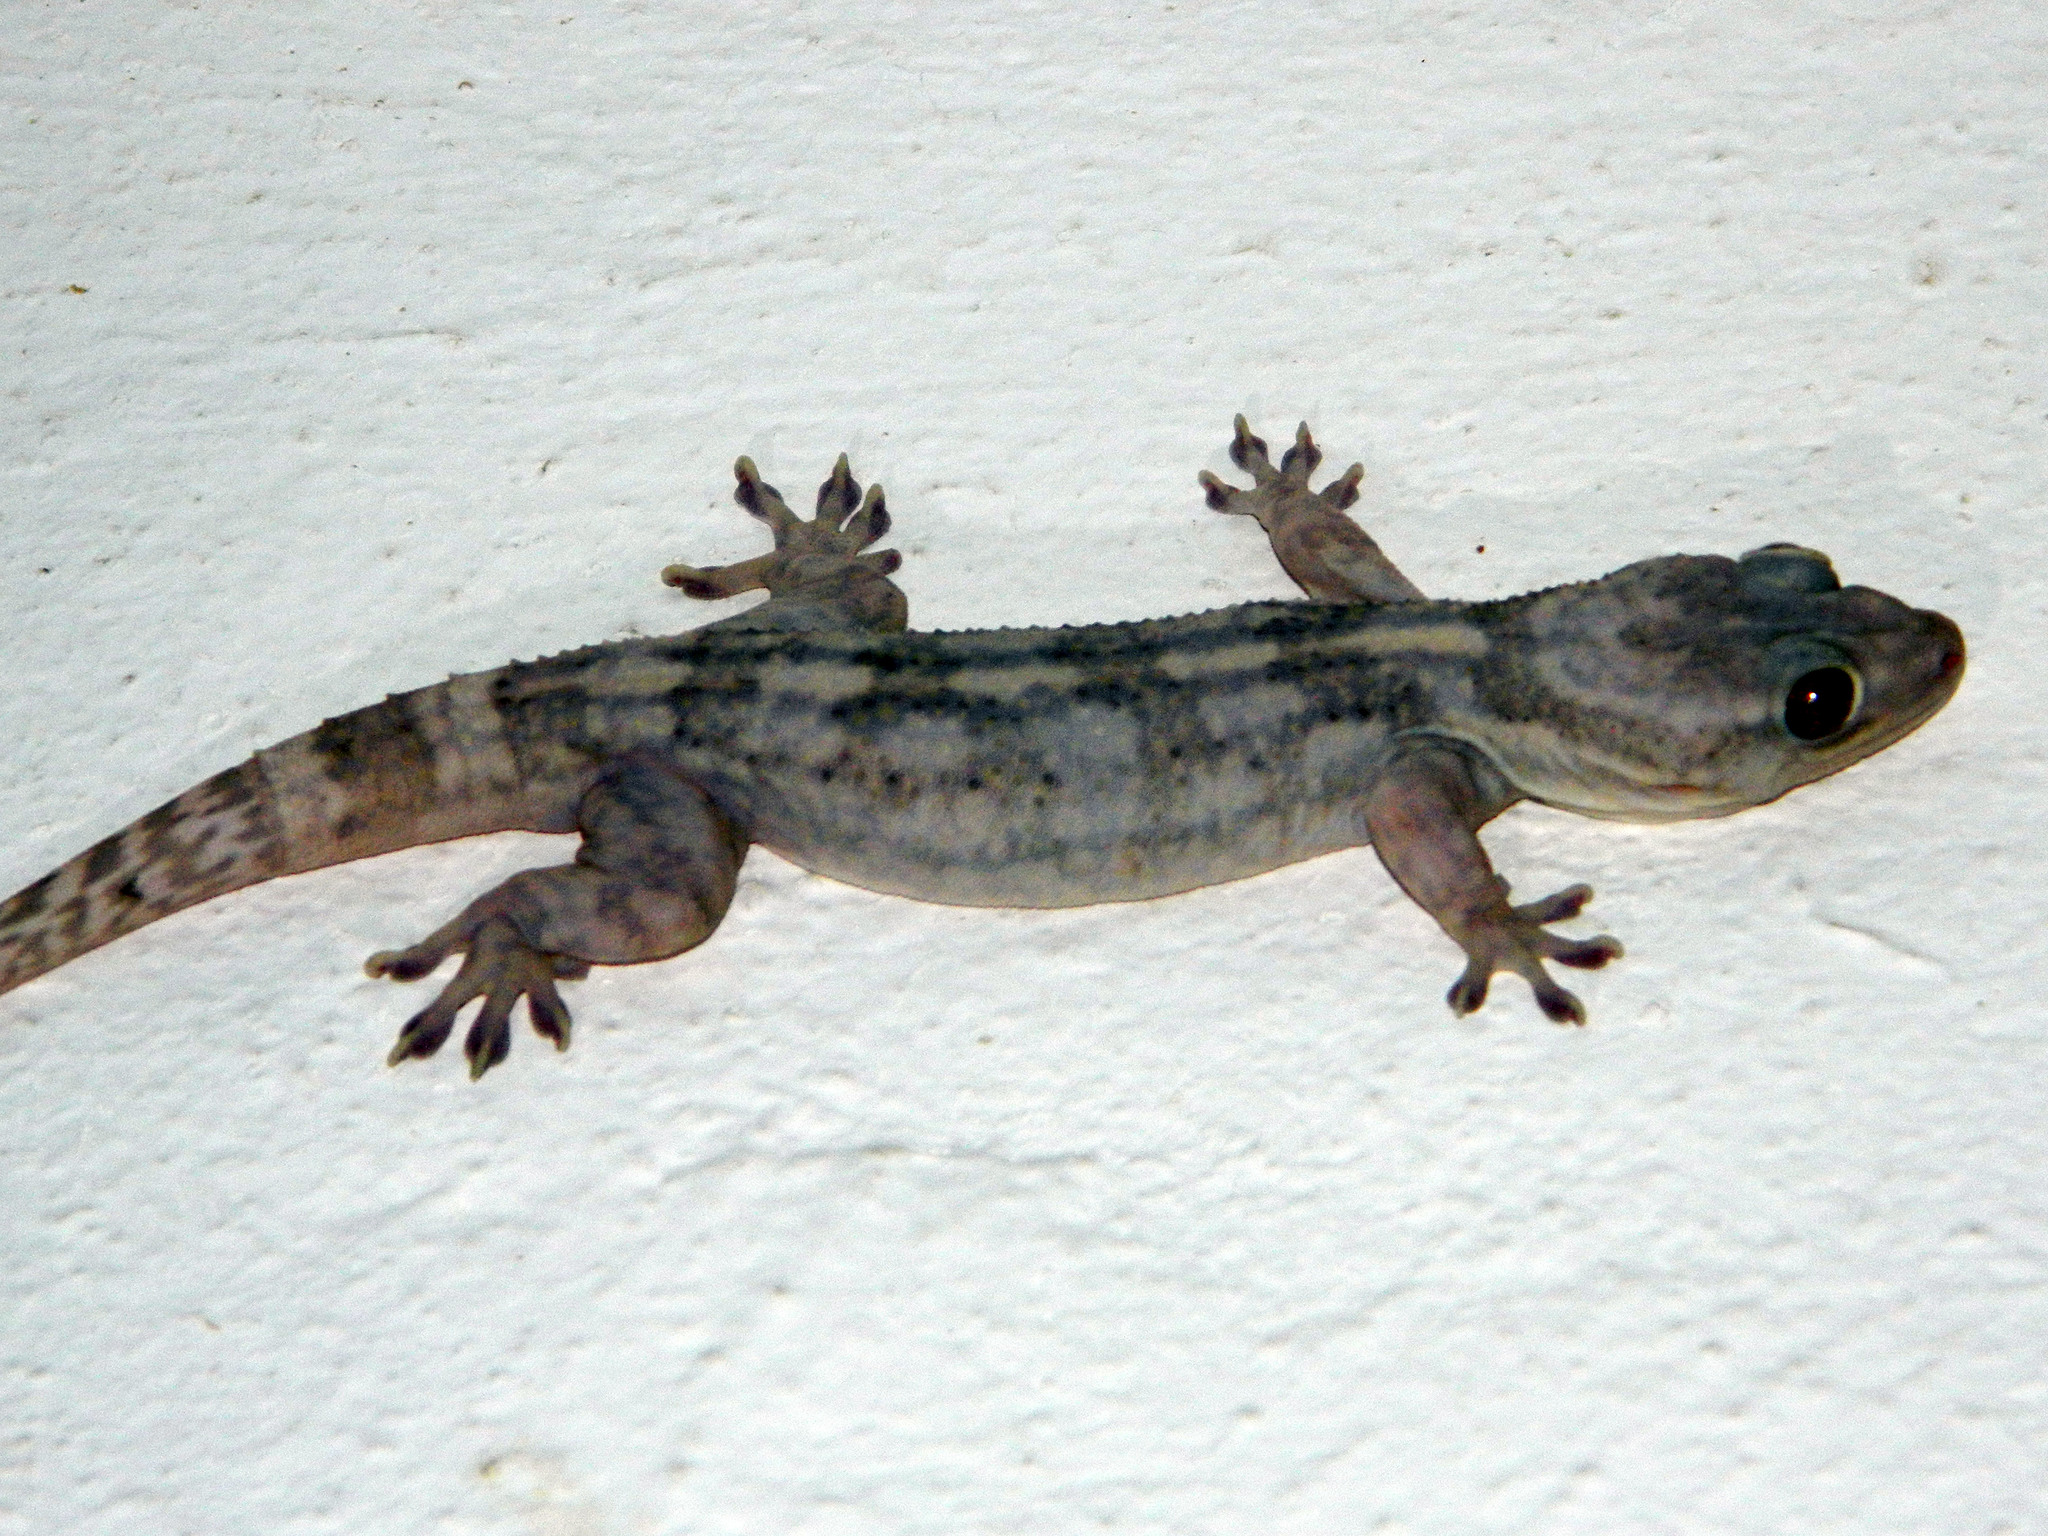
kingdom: Animalia
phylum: Chordata
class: Squamata
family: Gekkonidae
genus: Blaesodactylus
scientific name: Blaesodactylus ambonihazo
